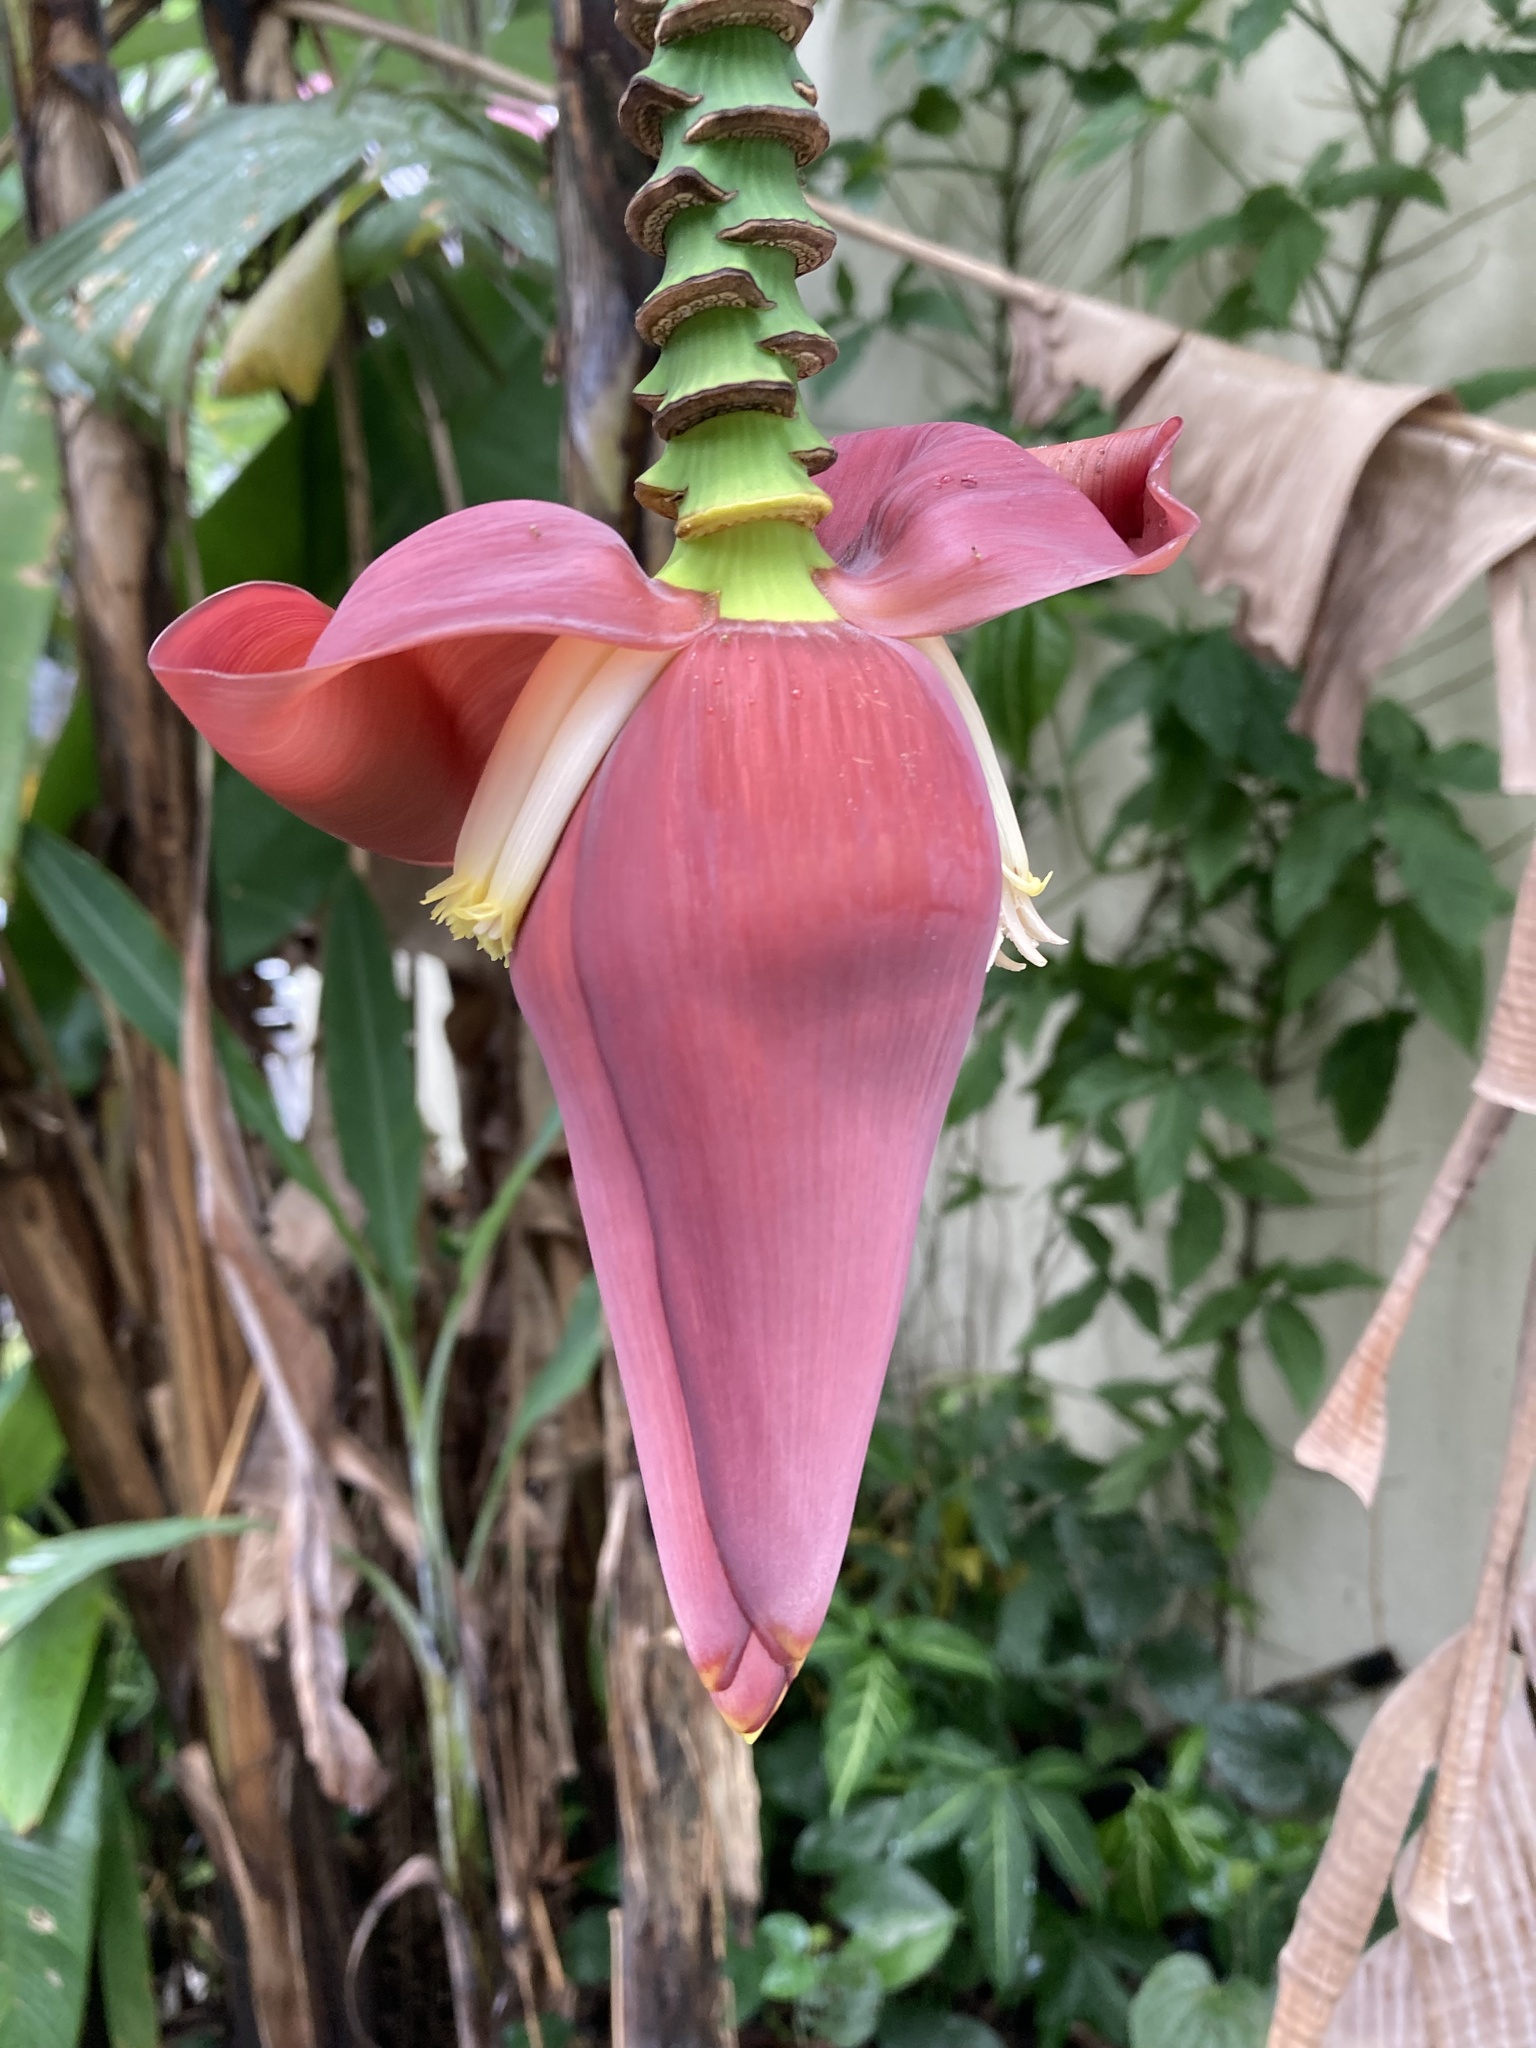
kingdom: Plantae
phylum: Tracheophyta
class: Liliopsida
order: Zingiberales
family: Musaceae
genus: Musa
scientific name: Musa acuminata
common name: Edible banana
